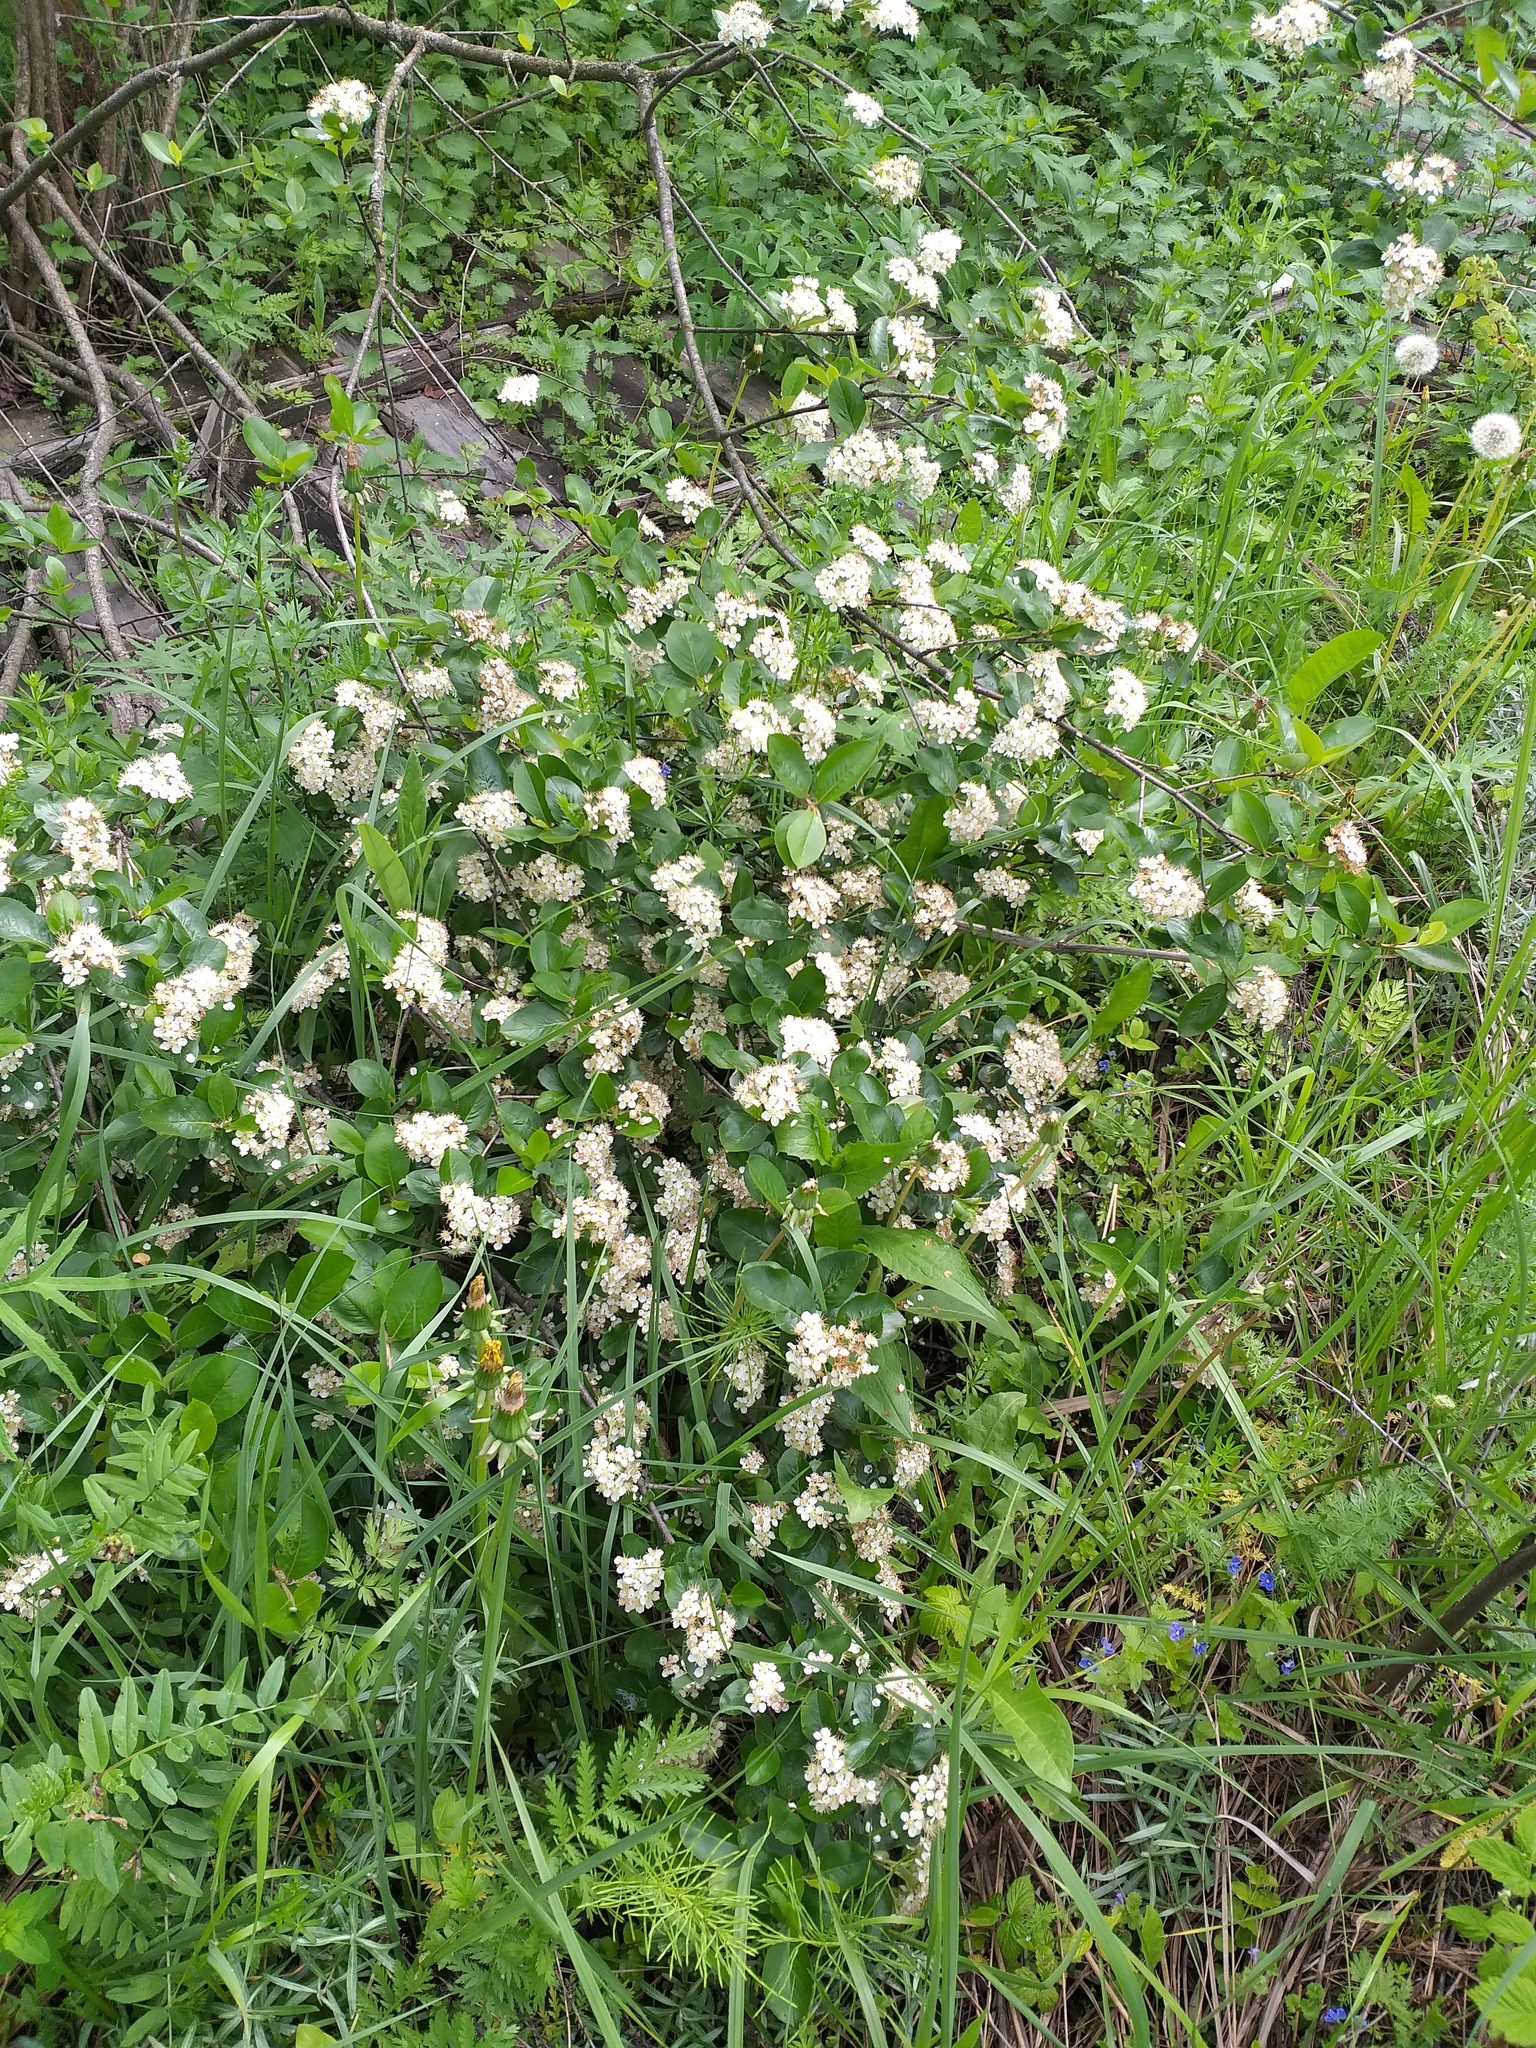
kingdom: Plantae
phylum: Tracheophyta
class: Magnoliopsida
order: Rosales
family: Rosaceae
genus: Sorbaronia
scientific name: Sorbaronia arsenii
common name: Arsène's mountain-ash
